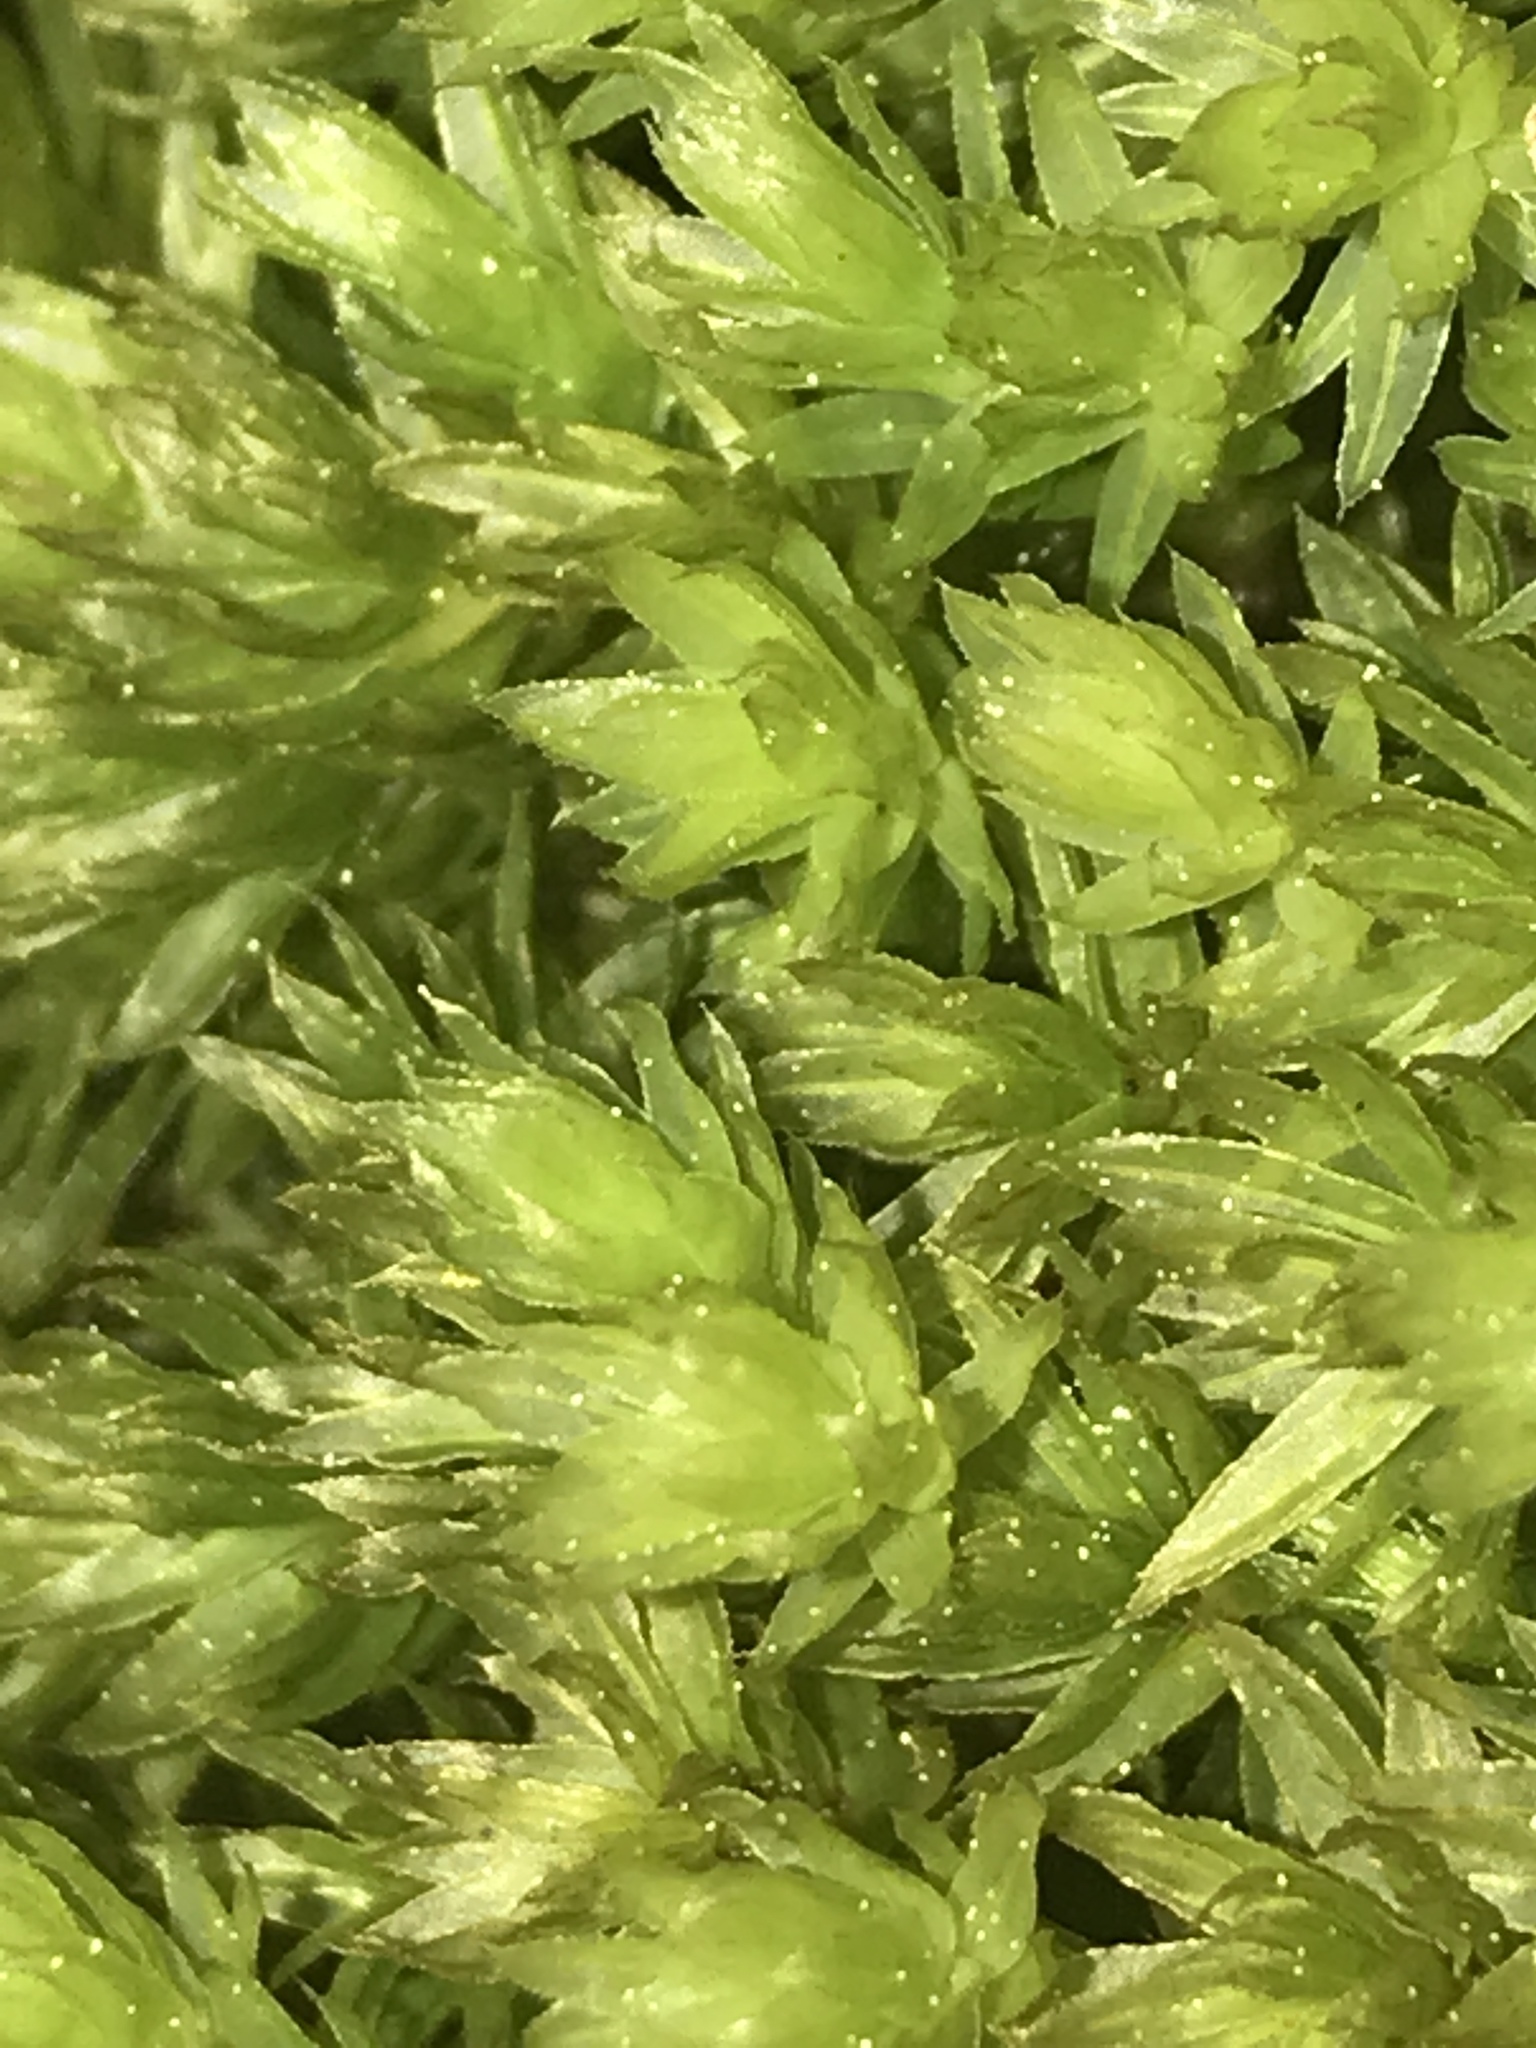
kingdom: Plantae
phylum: Bryophyta
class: Bryopsida
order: Bryales
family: Mniaceae
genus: Mnium
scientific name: Mnium hornum
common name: Swan's-neck leafy moss
